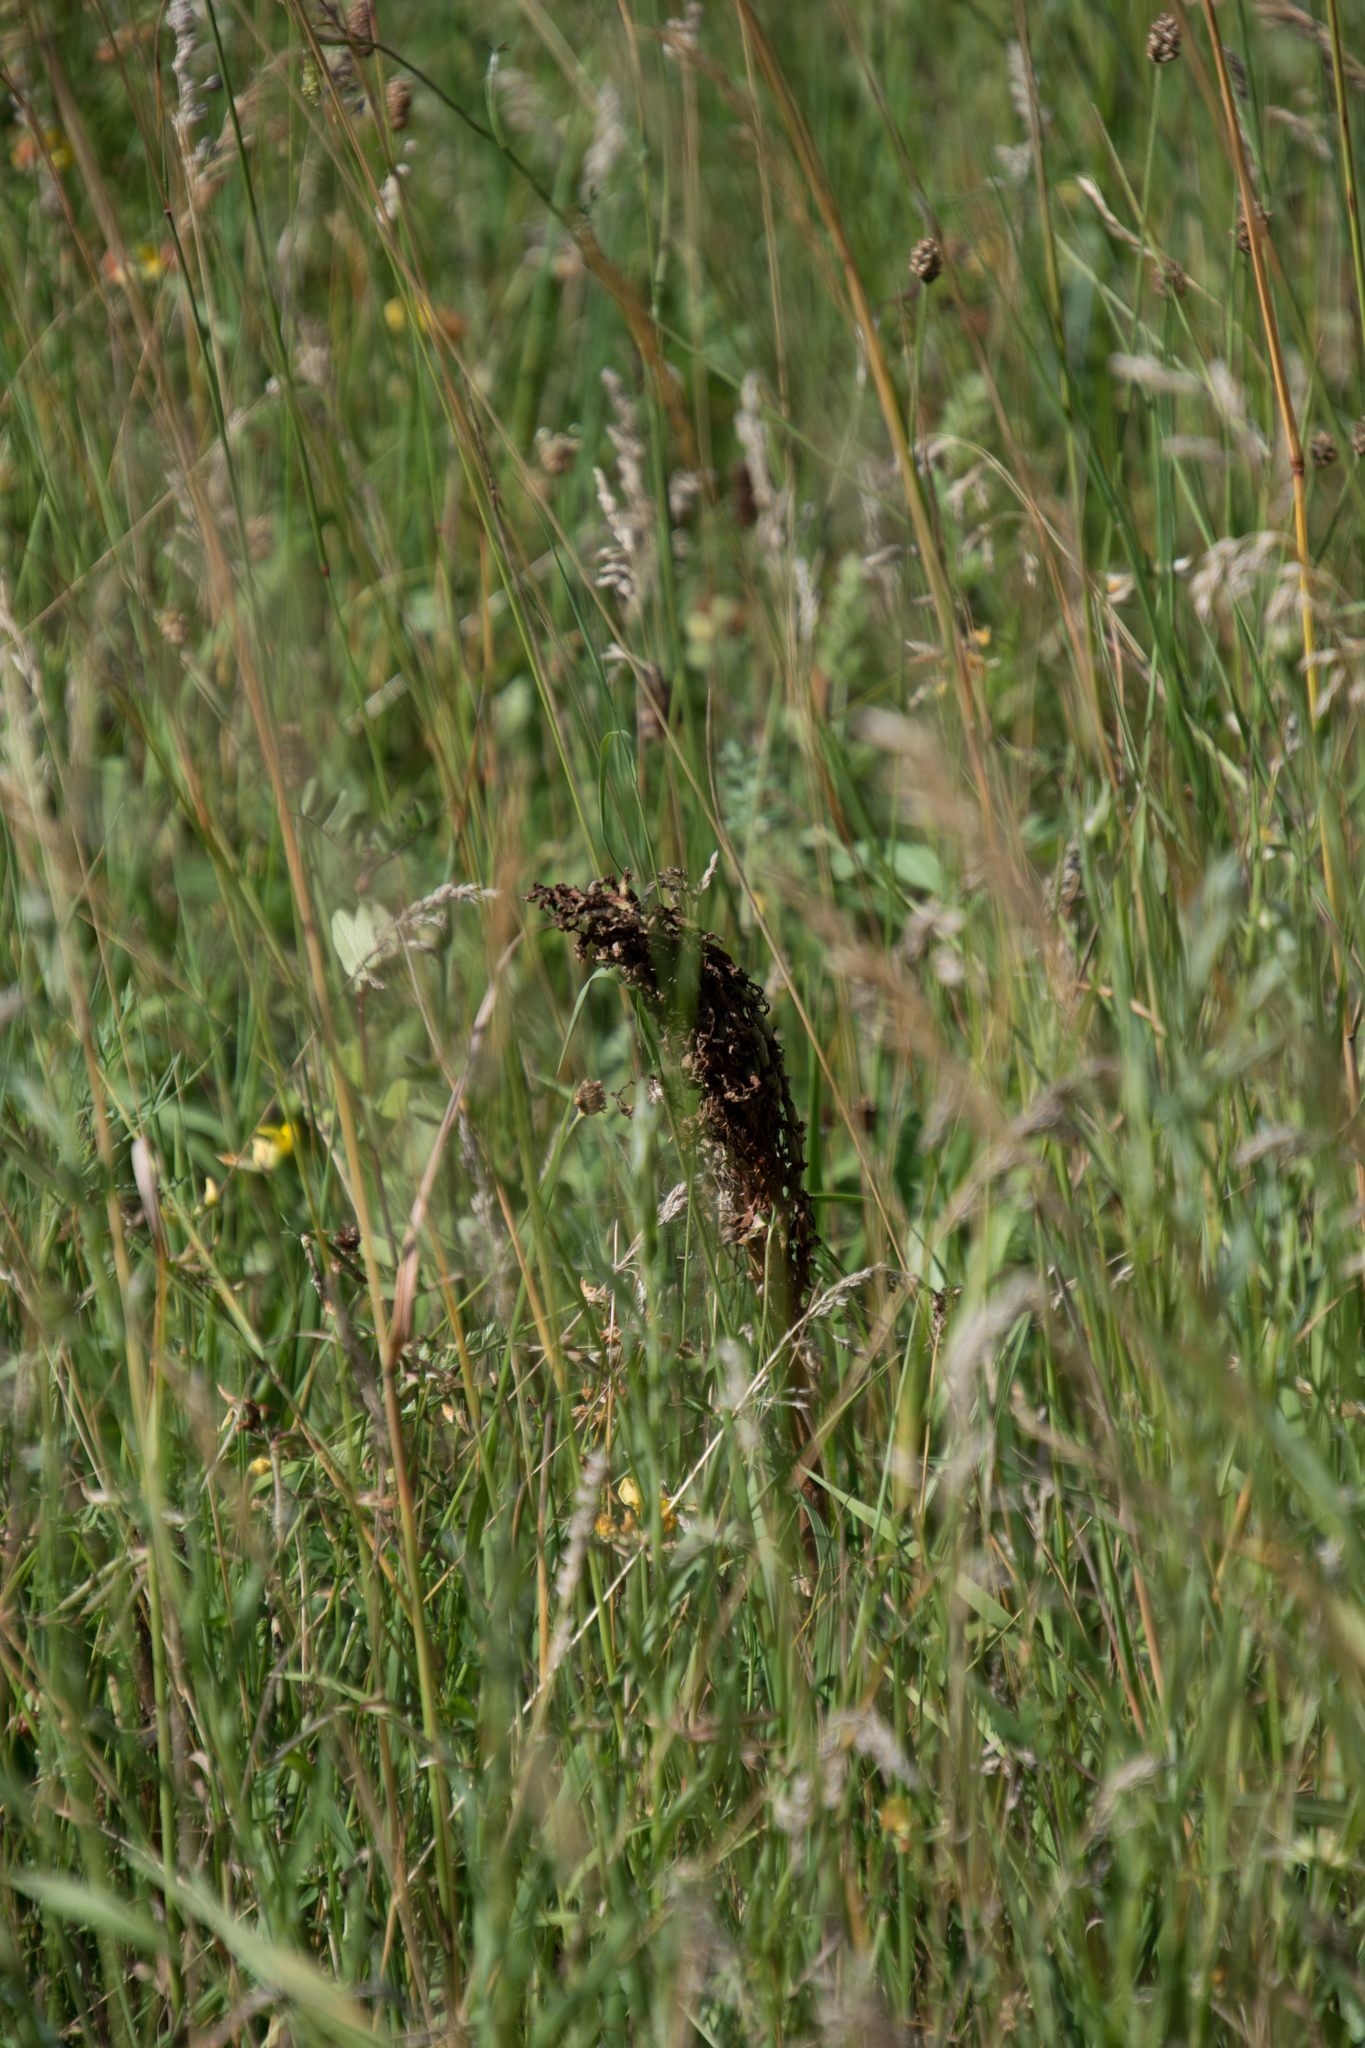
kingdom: Plantae
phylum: Tracheophyta
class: Liliopsida
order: Asparagales
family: Orchidaceae
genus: Himantoglossum
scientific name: Himantoglossum hircinum
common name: Lizard orchid
